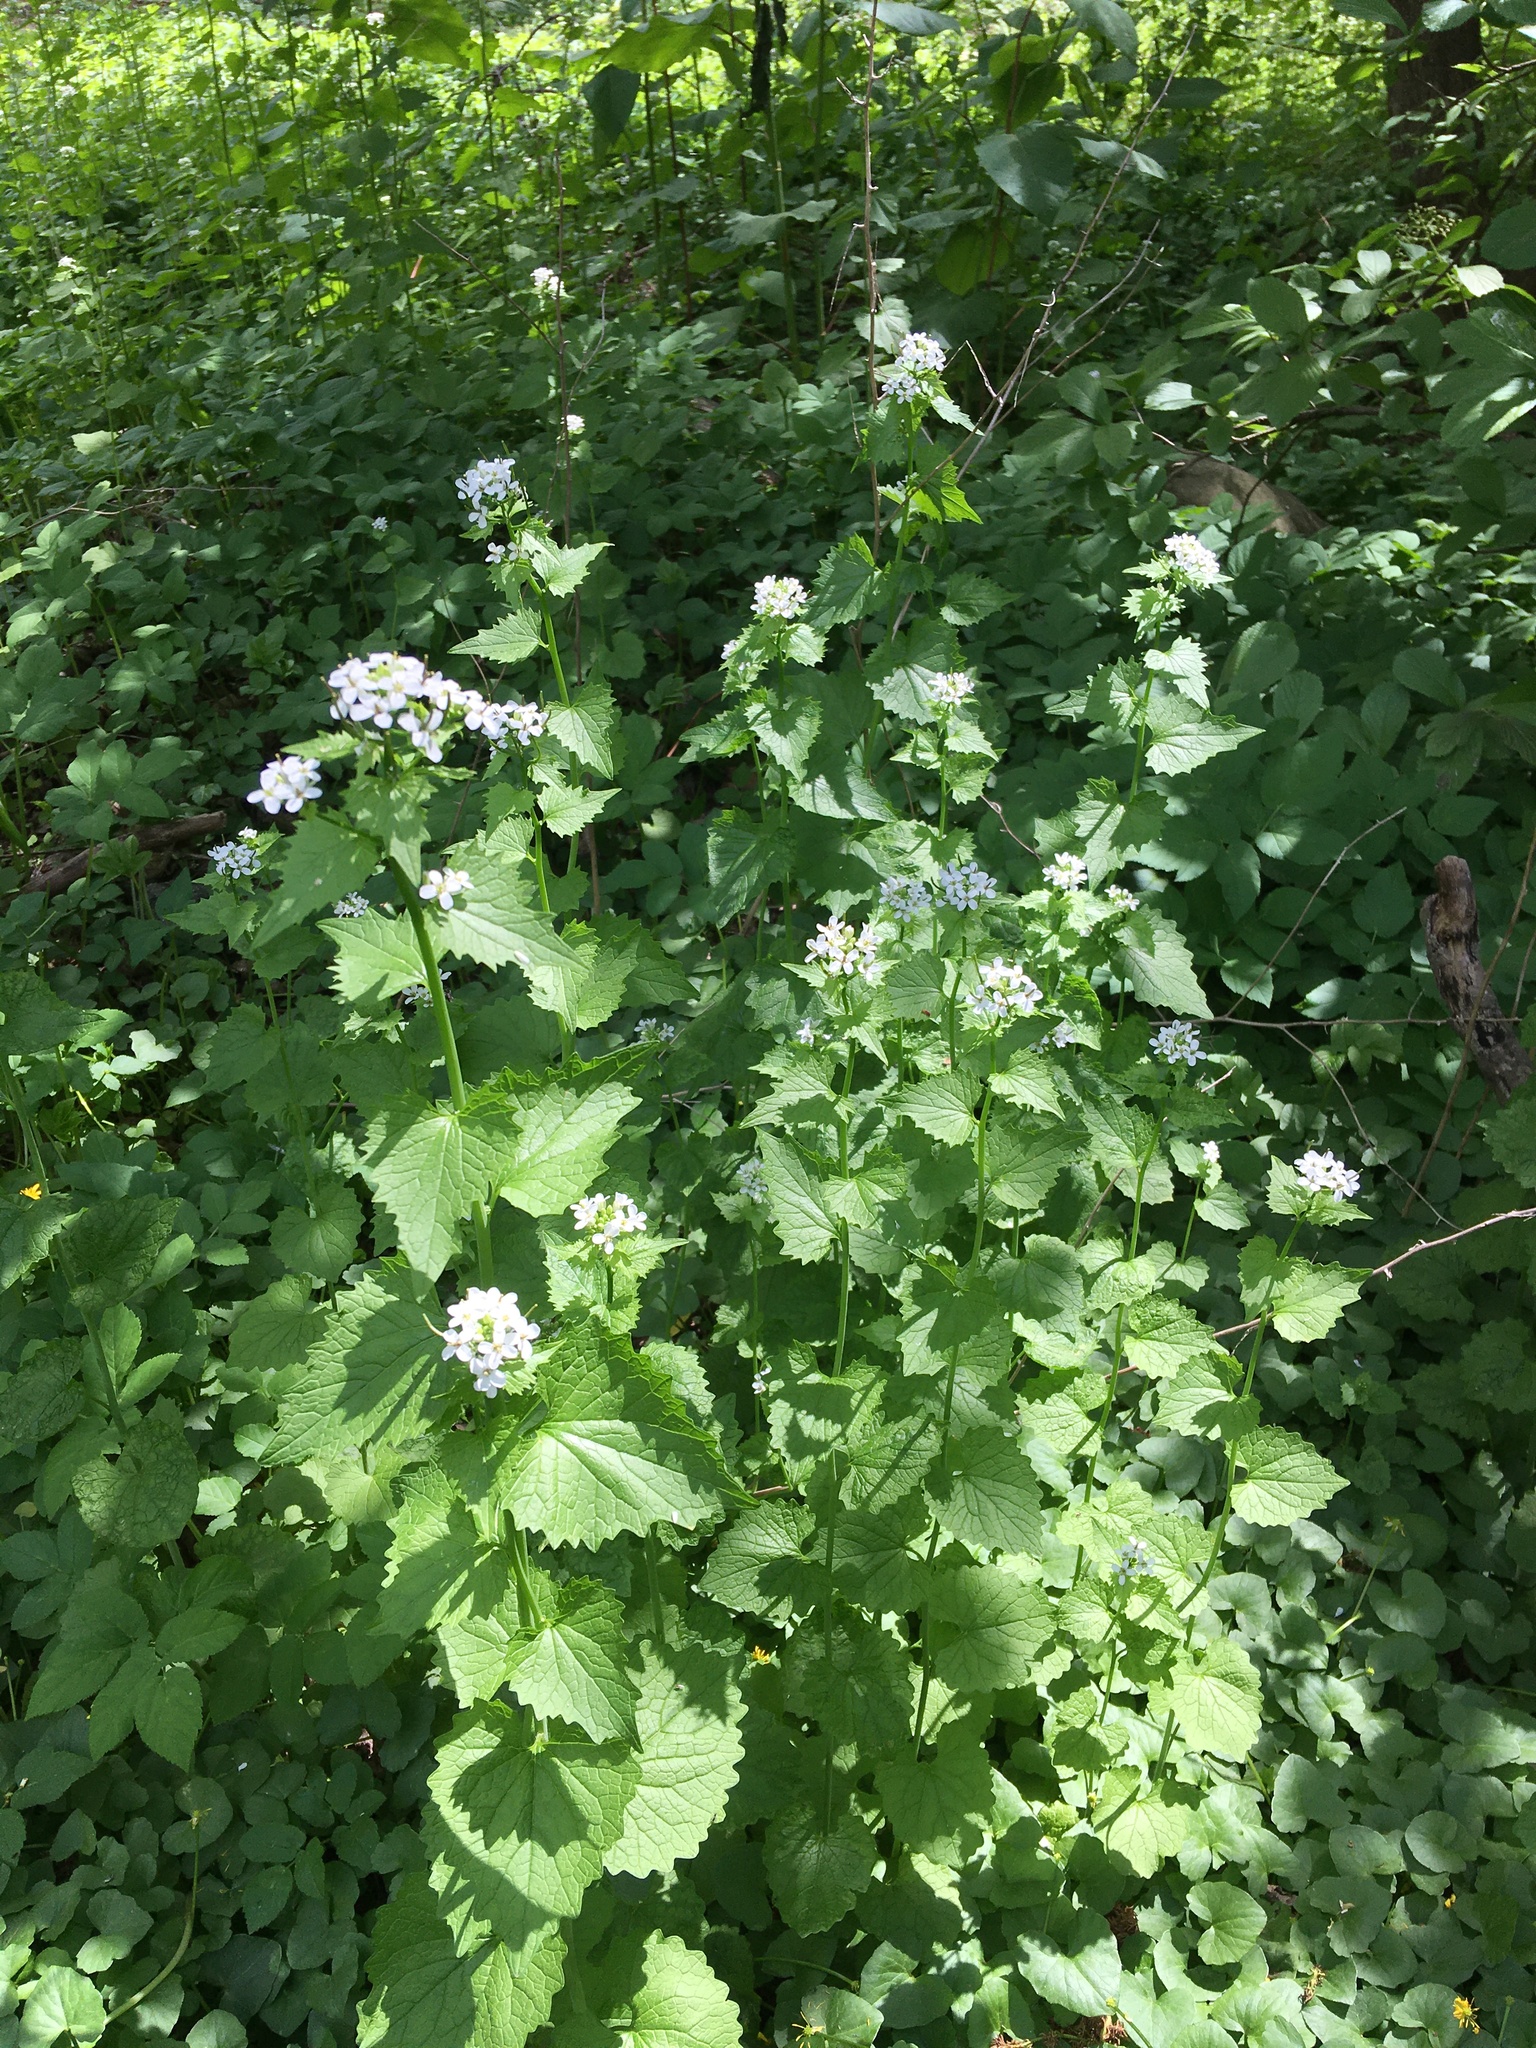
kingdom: Plantae
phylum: Tracheophyta
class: Magnoliopsida
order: Brassicales
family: Brassicaceae
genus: Alliaria
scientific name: Alliaria petiolata
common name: Garlic mustard
